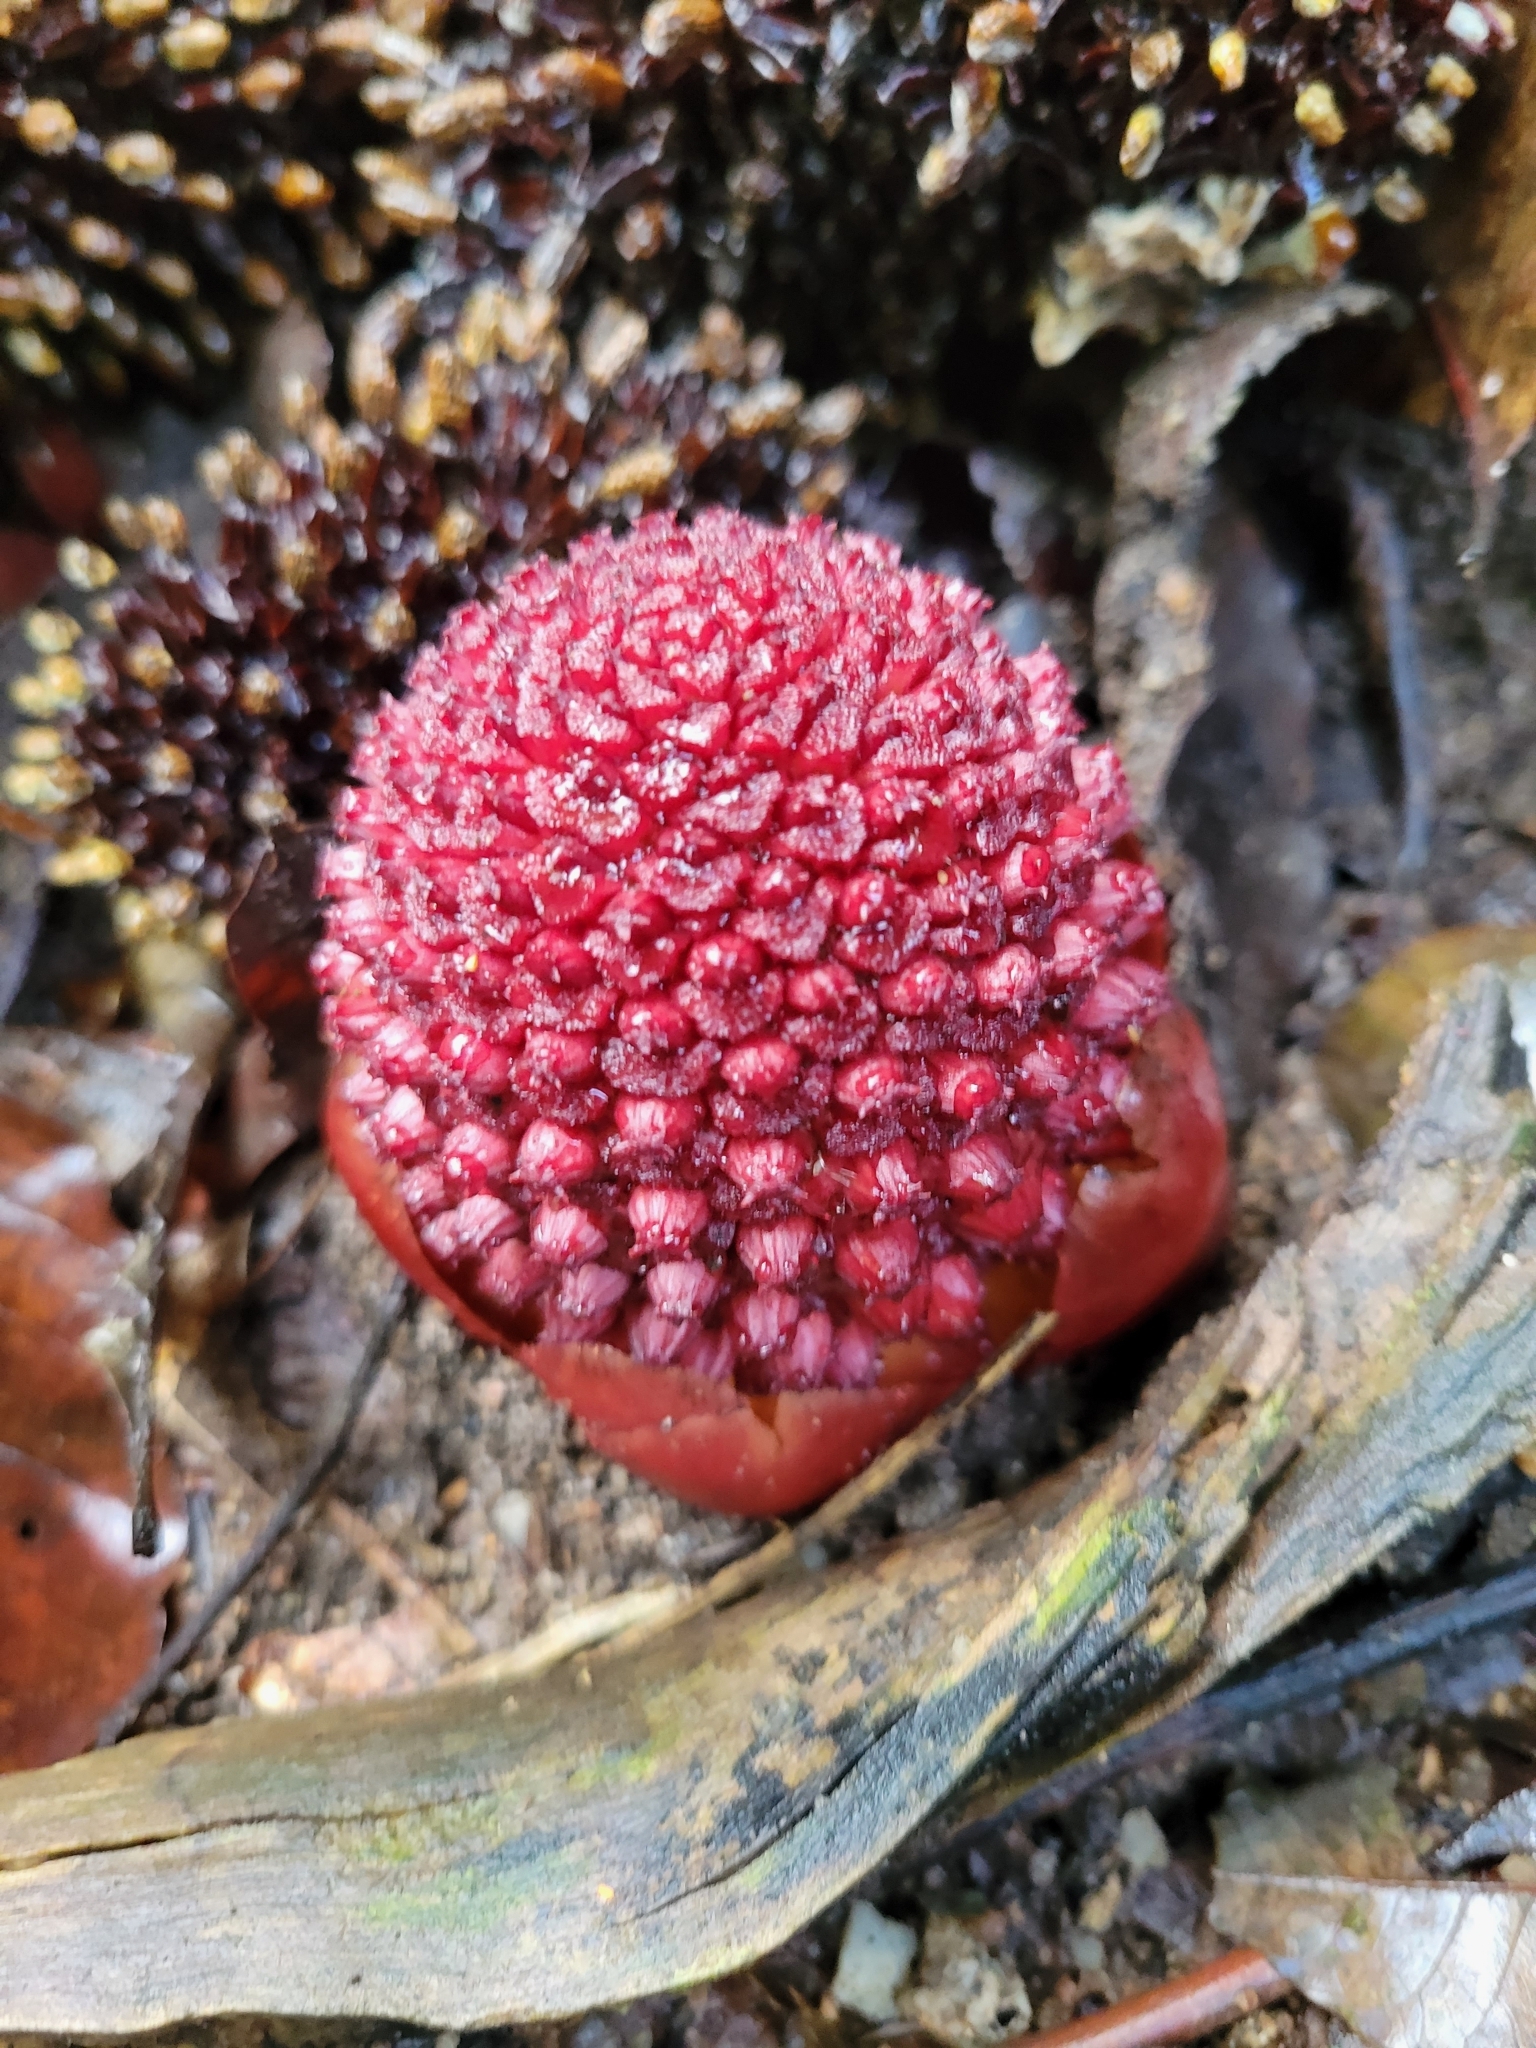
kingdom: Plantae
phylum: Tracheophyta
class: Magnoliopsida
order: Santalales
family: Balanophoraceae
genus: Balanophora
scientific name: Balanophora fungosa
